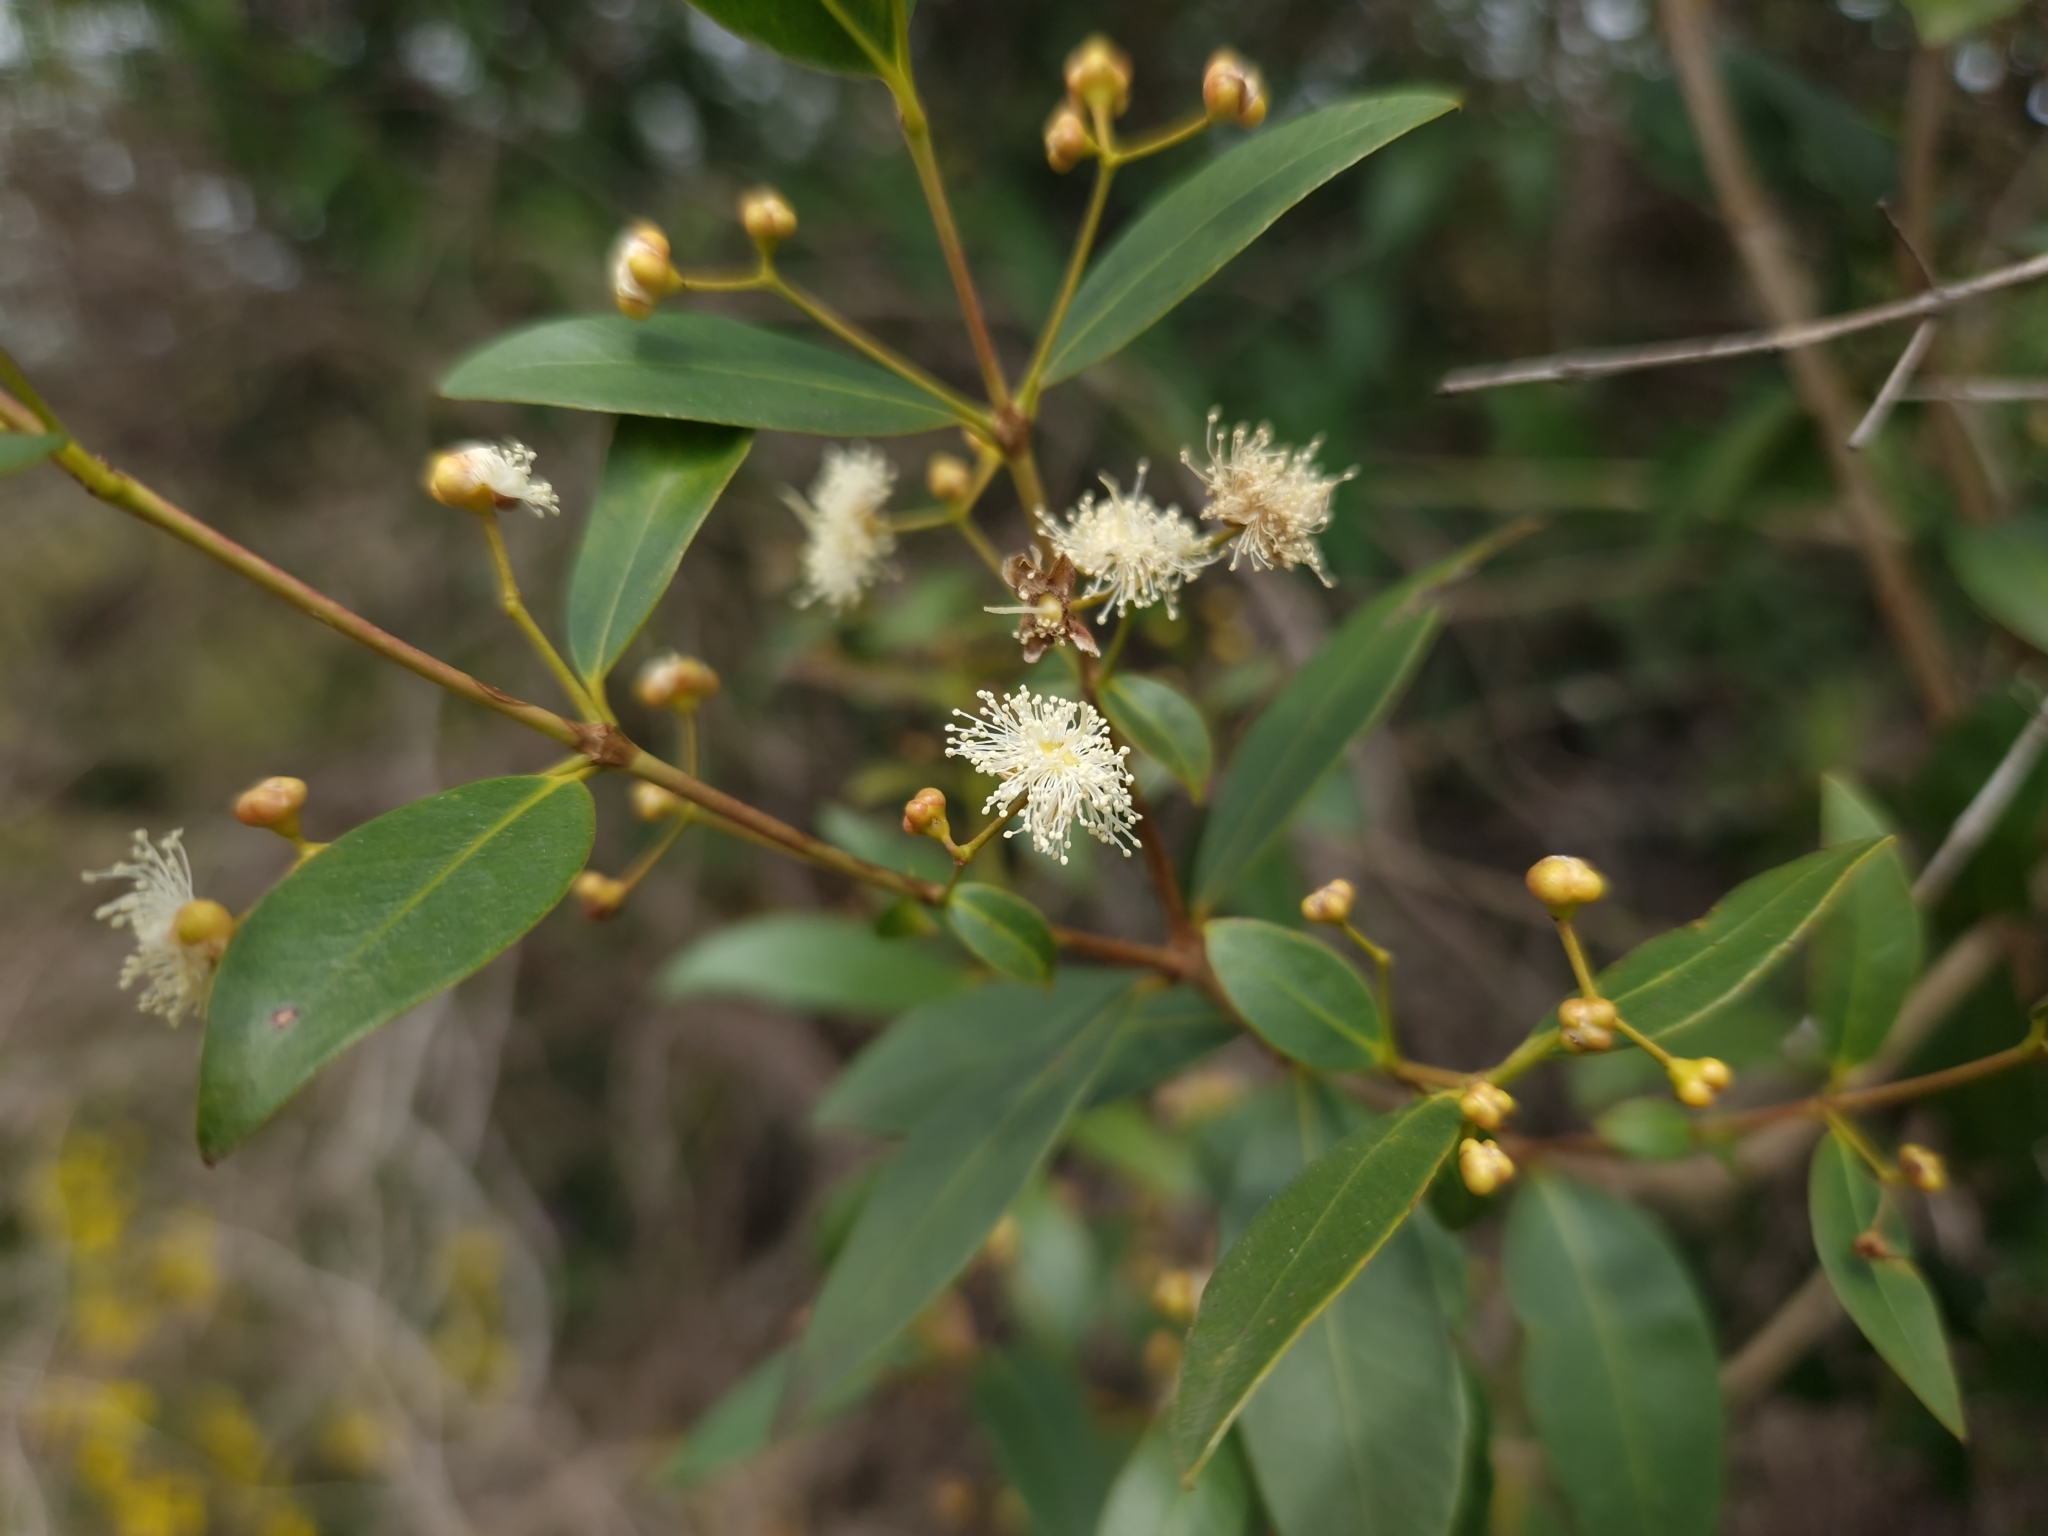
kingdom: Plantae
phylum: Tracheophyta
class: Magnoliopsida
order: Myrtales
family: Myrtaceae
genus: Myrcianthes
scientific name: Myrcianthes cisplatensis
